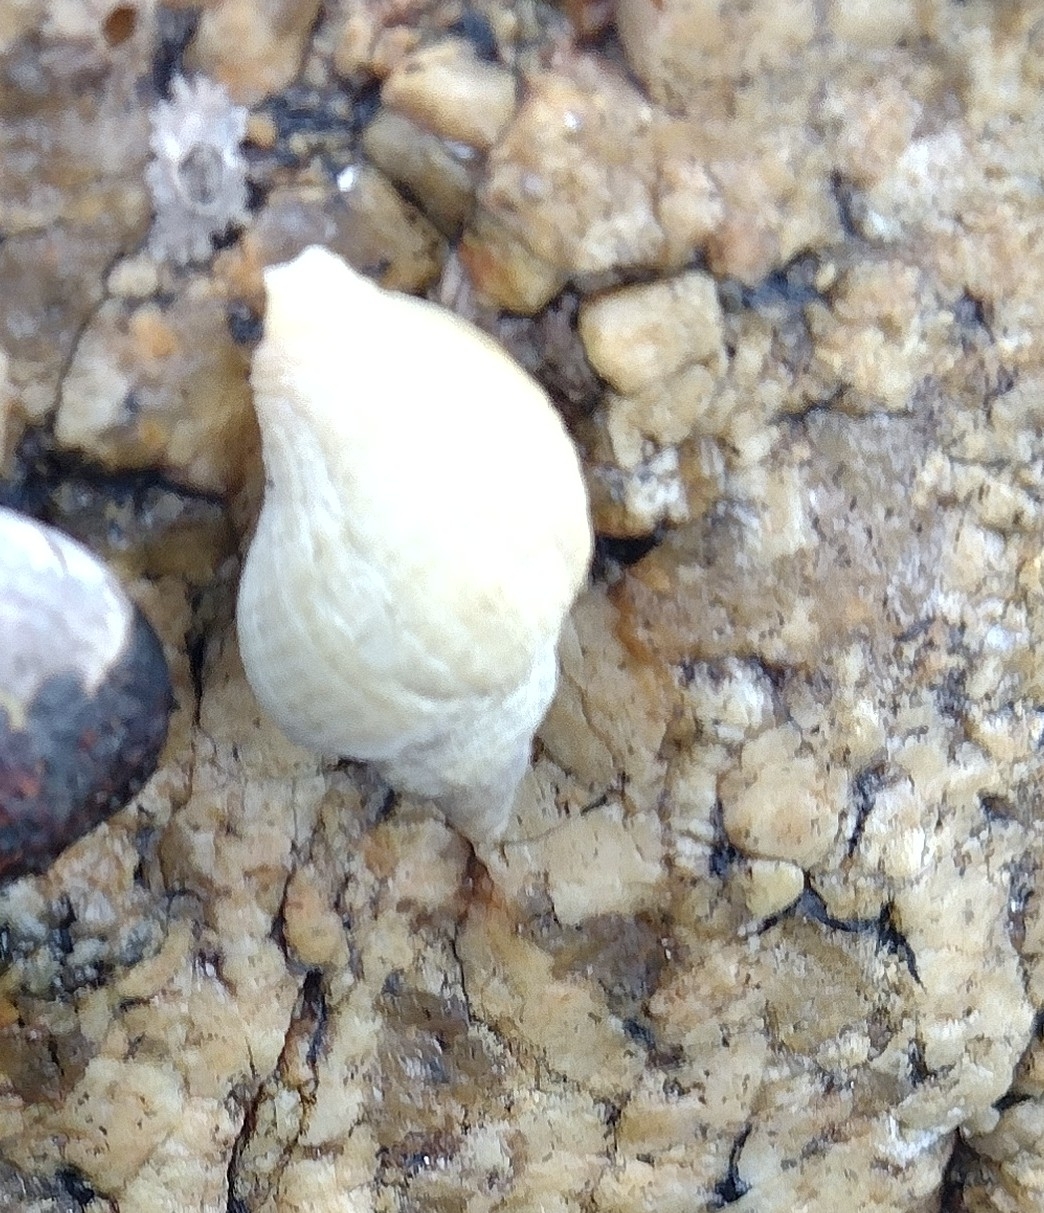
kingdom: Animalia
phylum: Mollusca
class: Gastropoda
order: Neogastropoda
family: Muricidae
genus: Nucella
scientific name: Nucella lapillus
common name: Dog whelk
